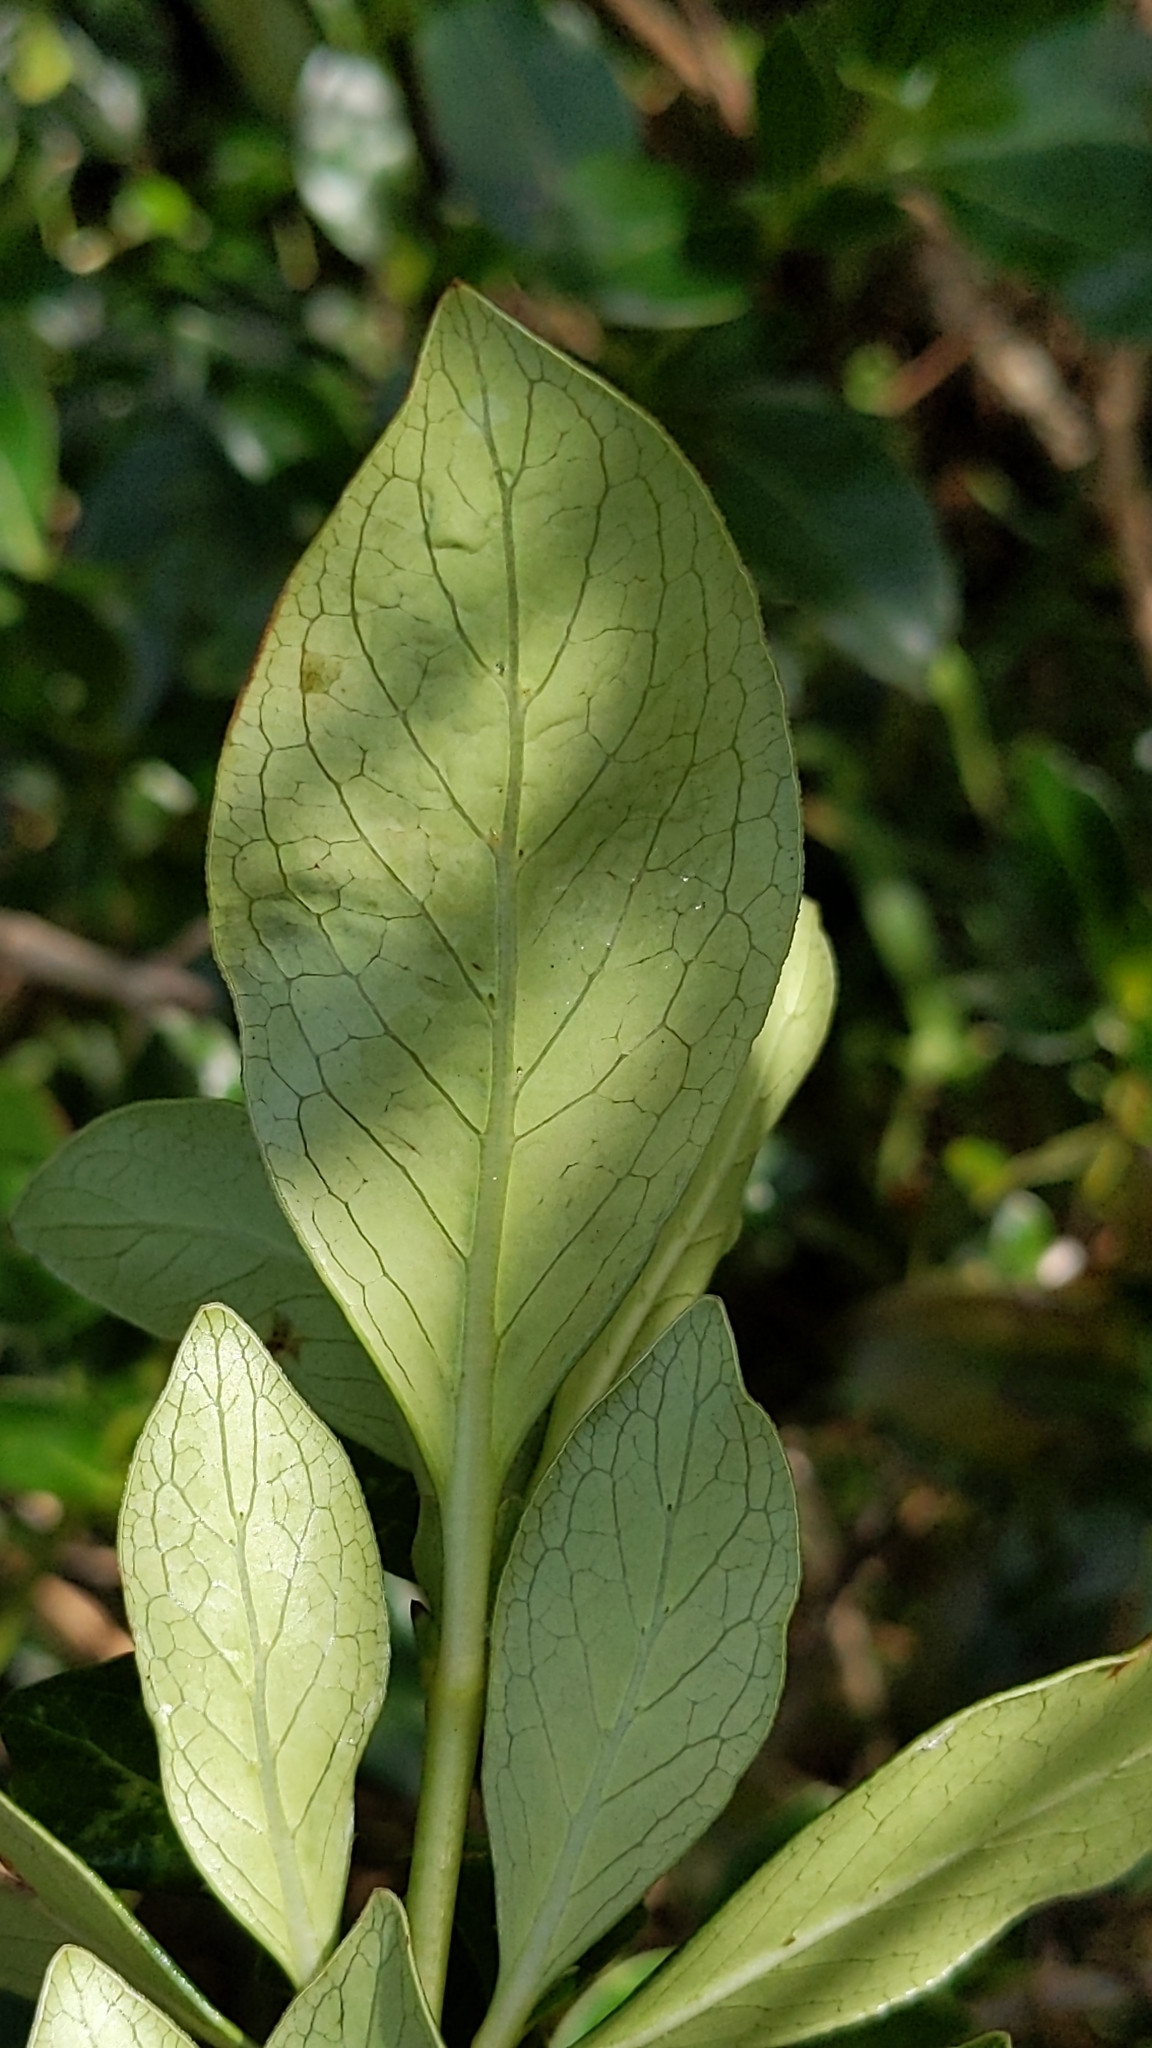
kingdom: Plantae
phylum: Tracheophyta
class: Magnoliopsida
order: Gentianales
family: Rubiaceae
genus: Coprosma
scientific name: Coprosma robusta
